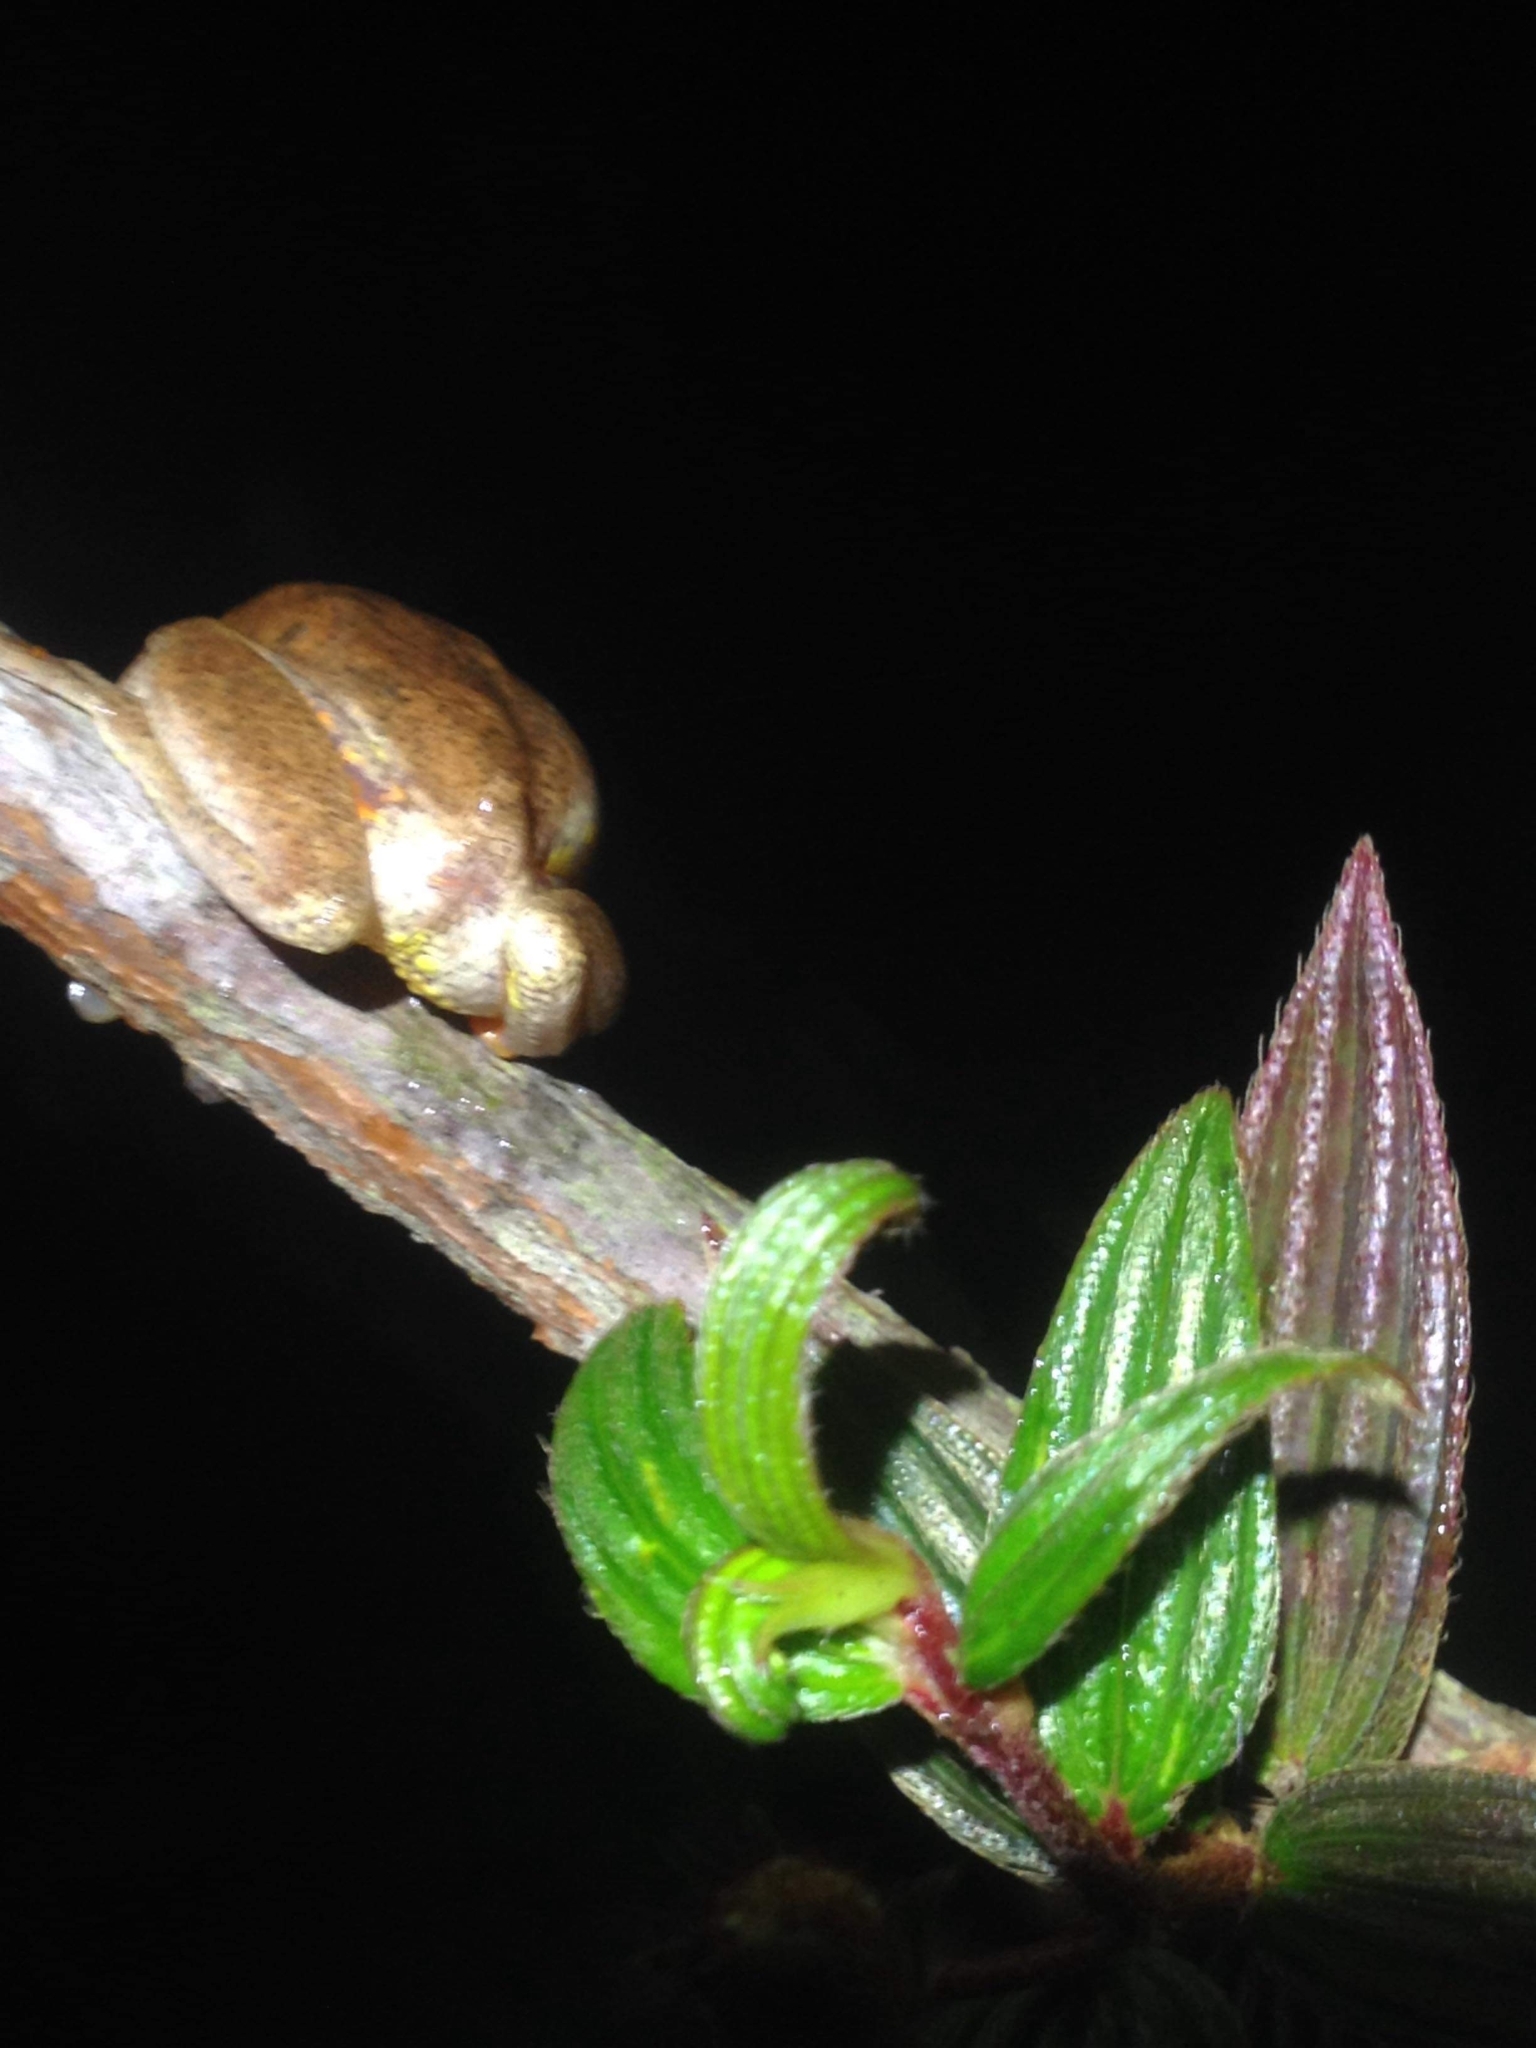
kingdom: Animalia
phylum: Chordata
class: Amphibia
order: Anura
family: Hylidae
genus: Dendropsophus
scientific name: Dendropsophus carnifex
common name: Executioner treefrog
